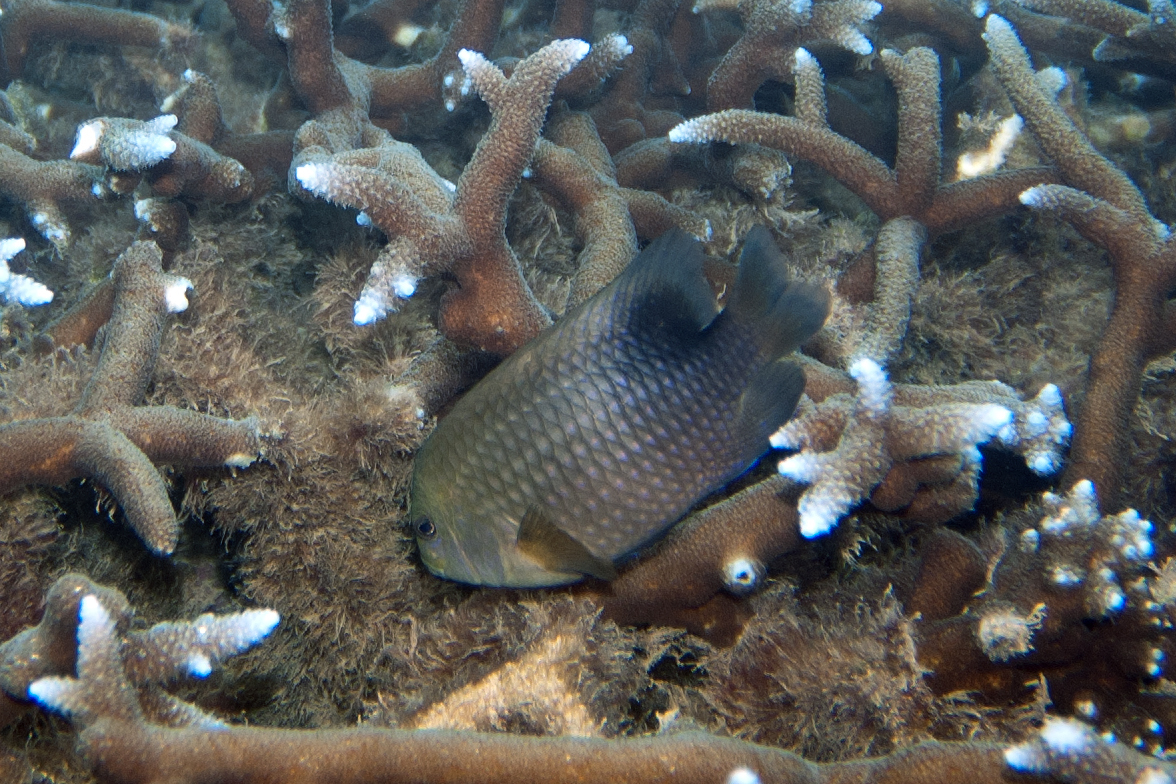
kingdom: Animalia
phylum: Chordata
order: Perciformes
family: Pomacentridae
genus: Stegastes
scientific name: Stegastes punctatus
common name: Blunt snout gregory
